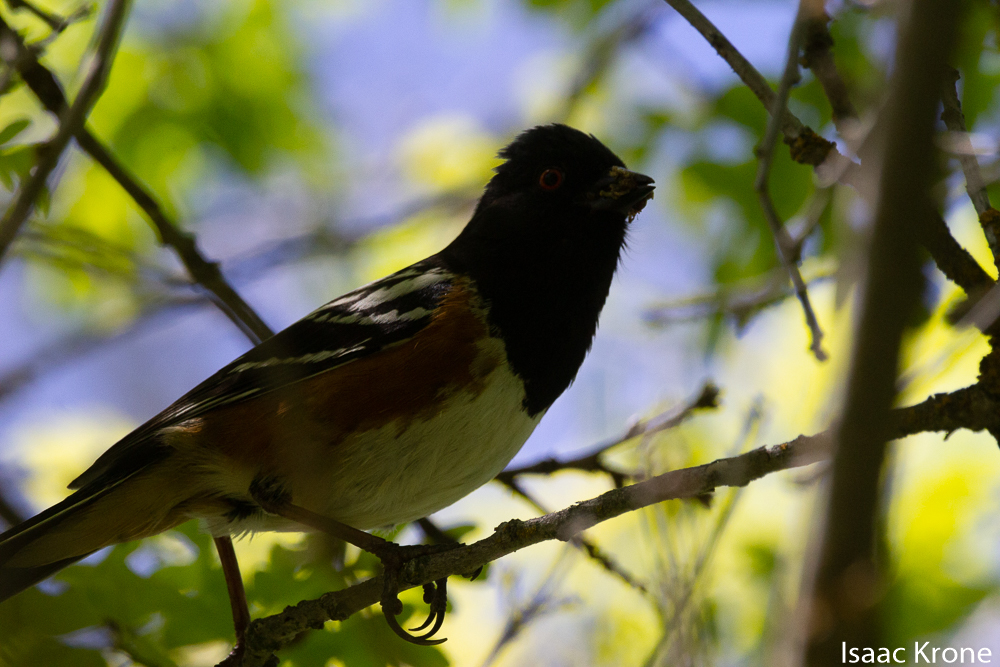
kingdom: Animalia
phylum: Chordata
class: Aves
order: Passeriformes
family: Passerellidae
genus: Pipilo
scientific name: Pipilo maculatus
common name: Spotted towhee
